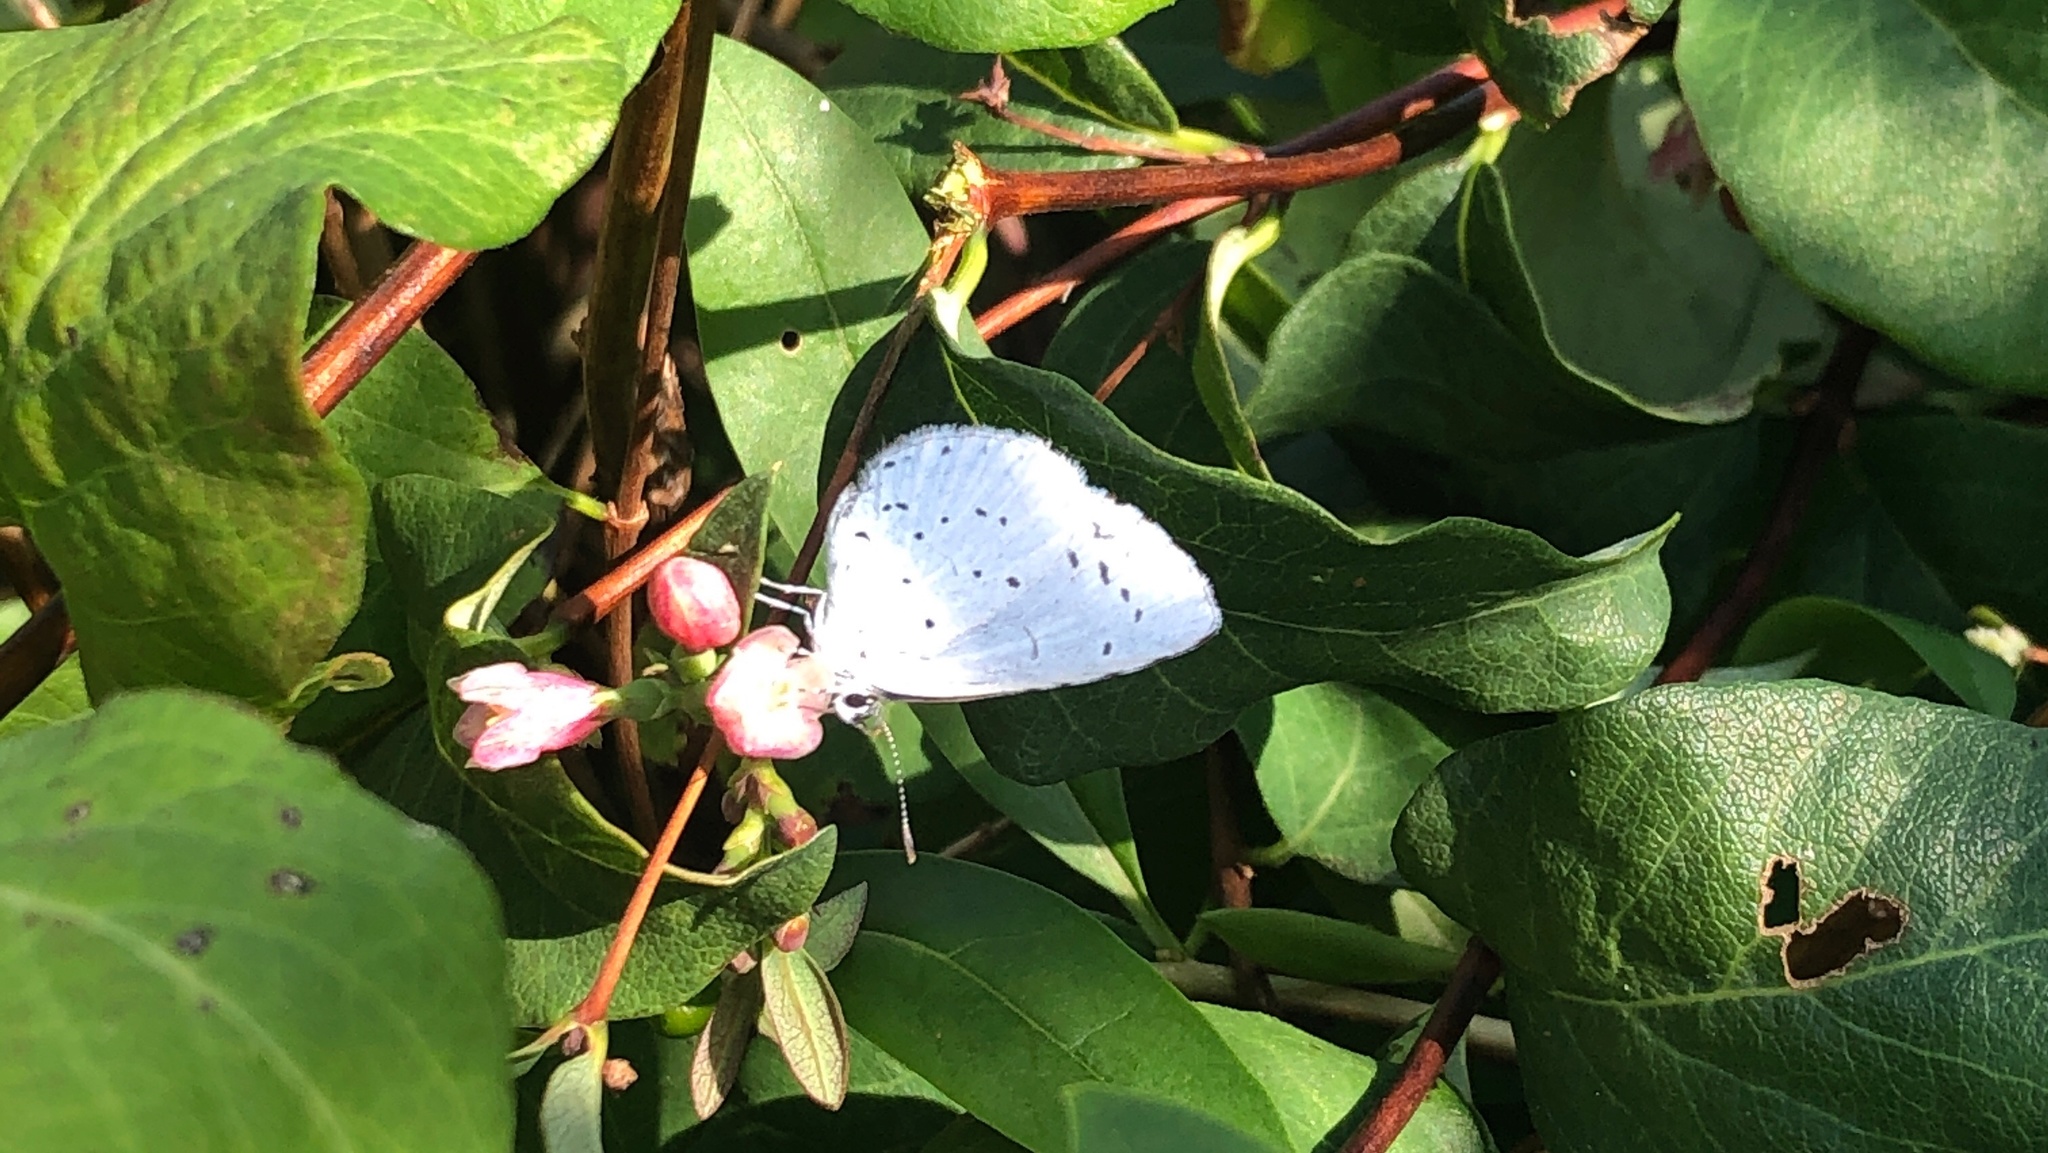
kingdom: Animalia
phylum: Arthropoda
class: Insecta
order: Lepidoptera
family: Lycaenidae
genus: Celastrina
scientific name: Celastrina argiolus
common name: Holly blue
